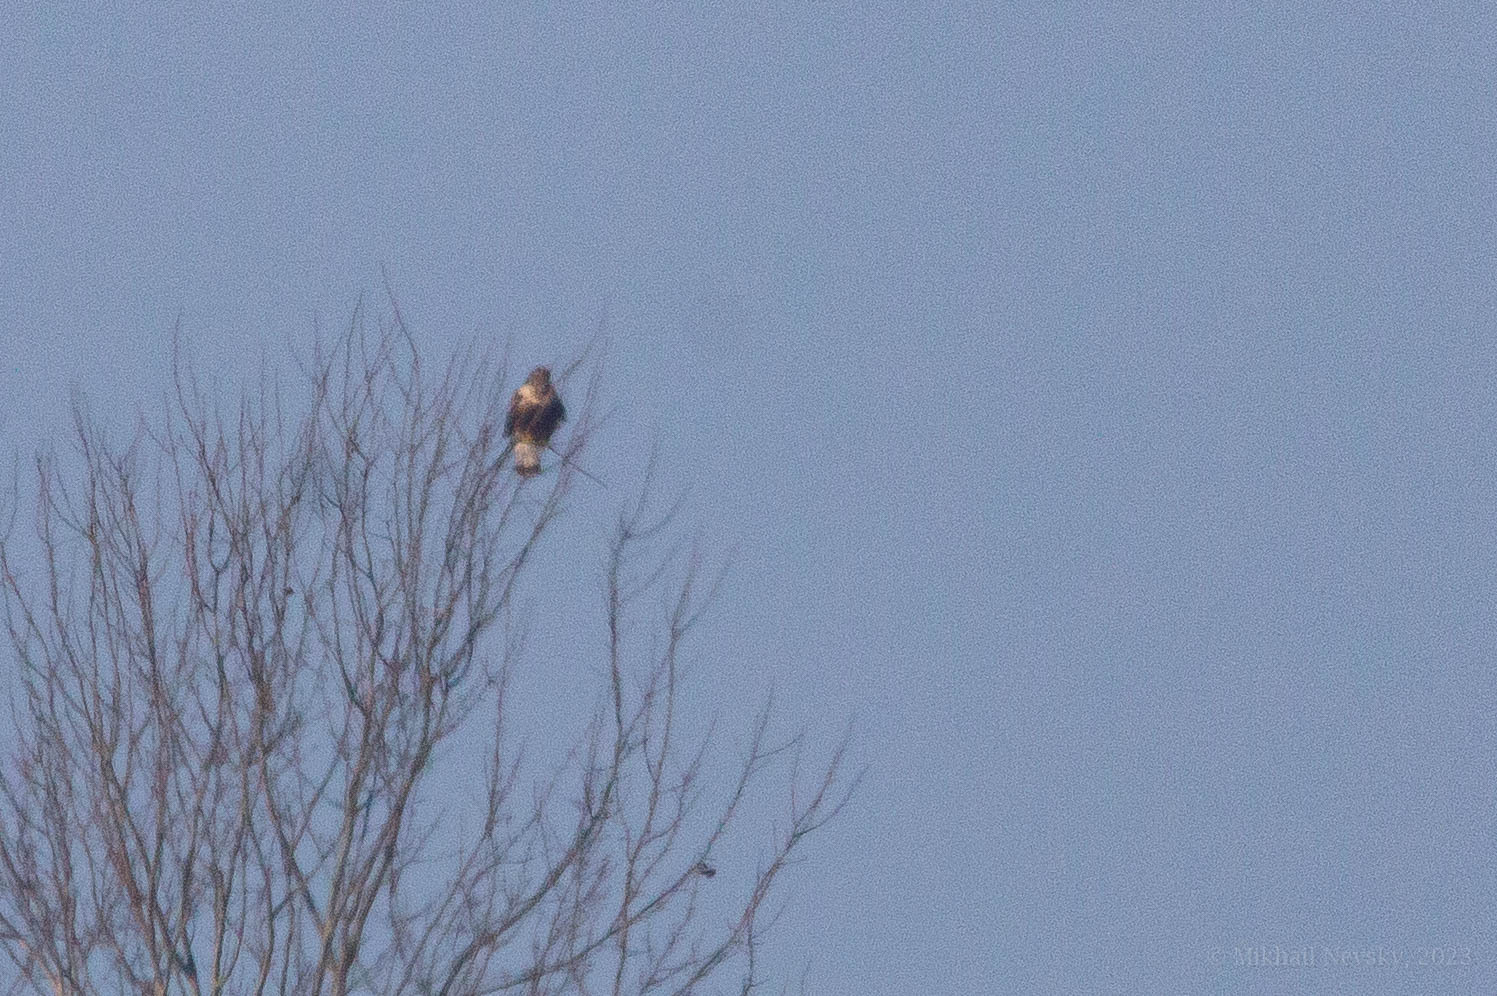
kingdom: Animalia
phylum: Chordata
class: Aves
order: Accipitriformes
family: Accipitridae
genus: Buteo
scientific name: Buteo lagopus
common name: Rough-legged buzzard
